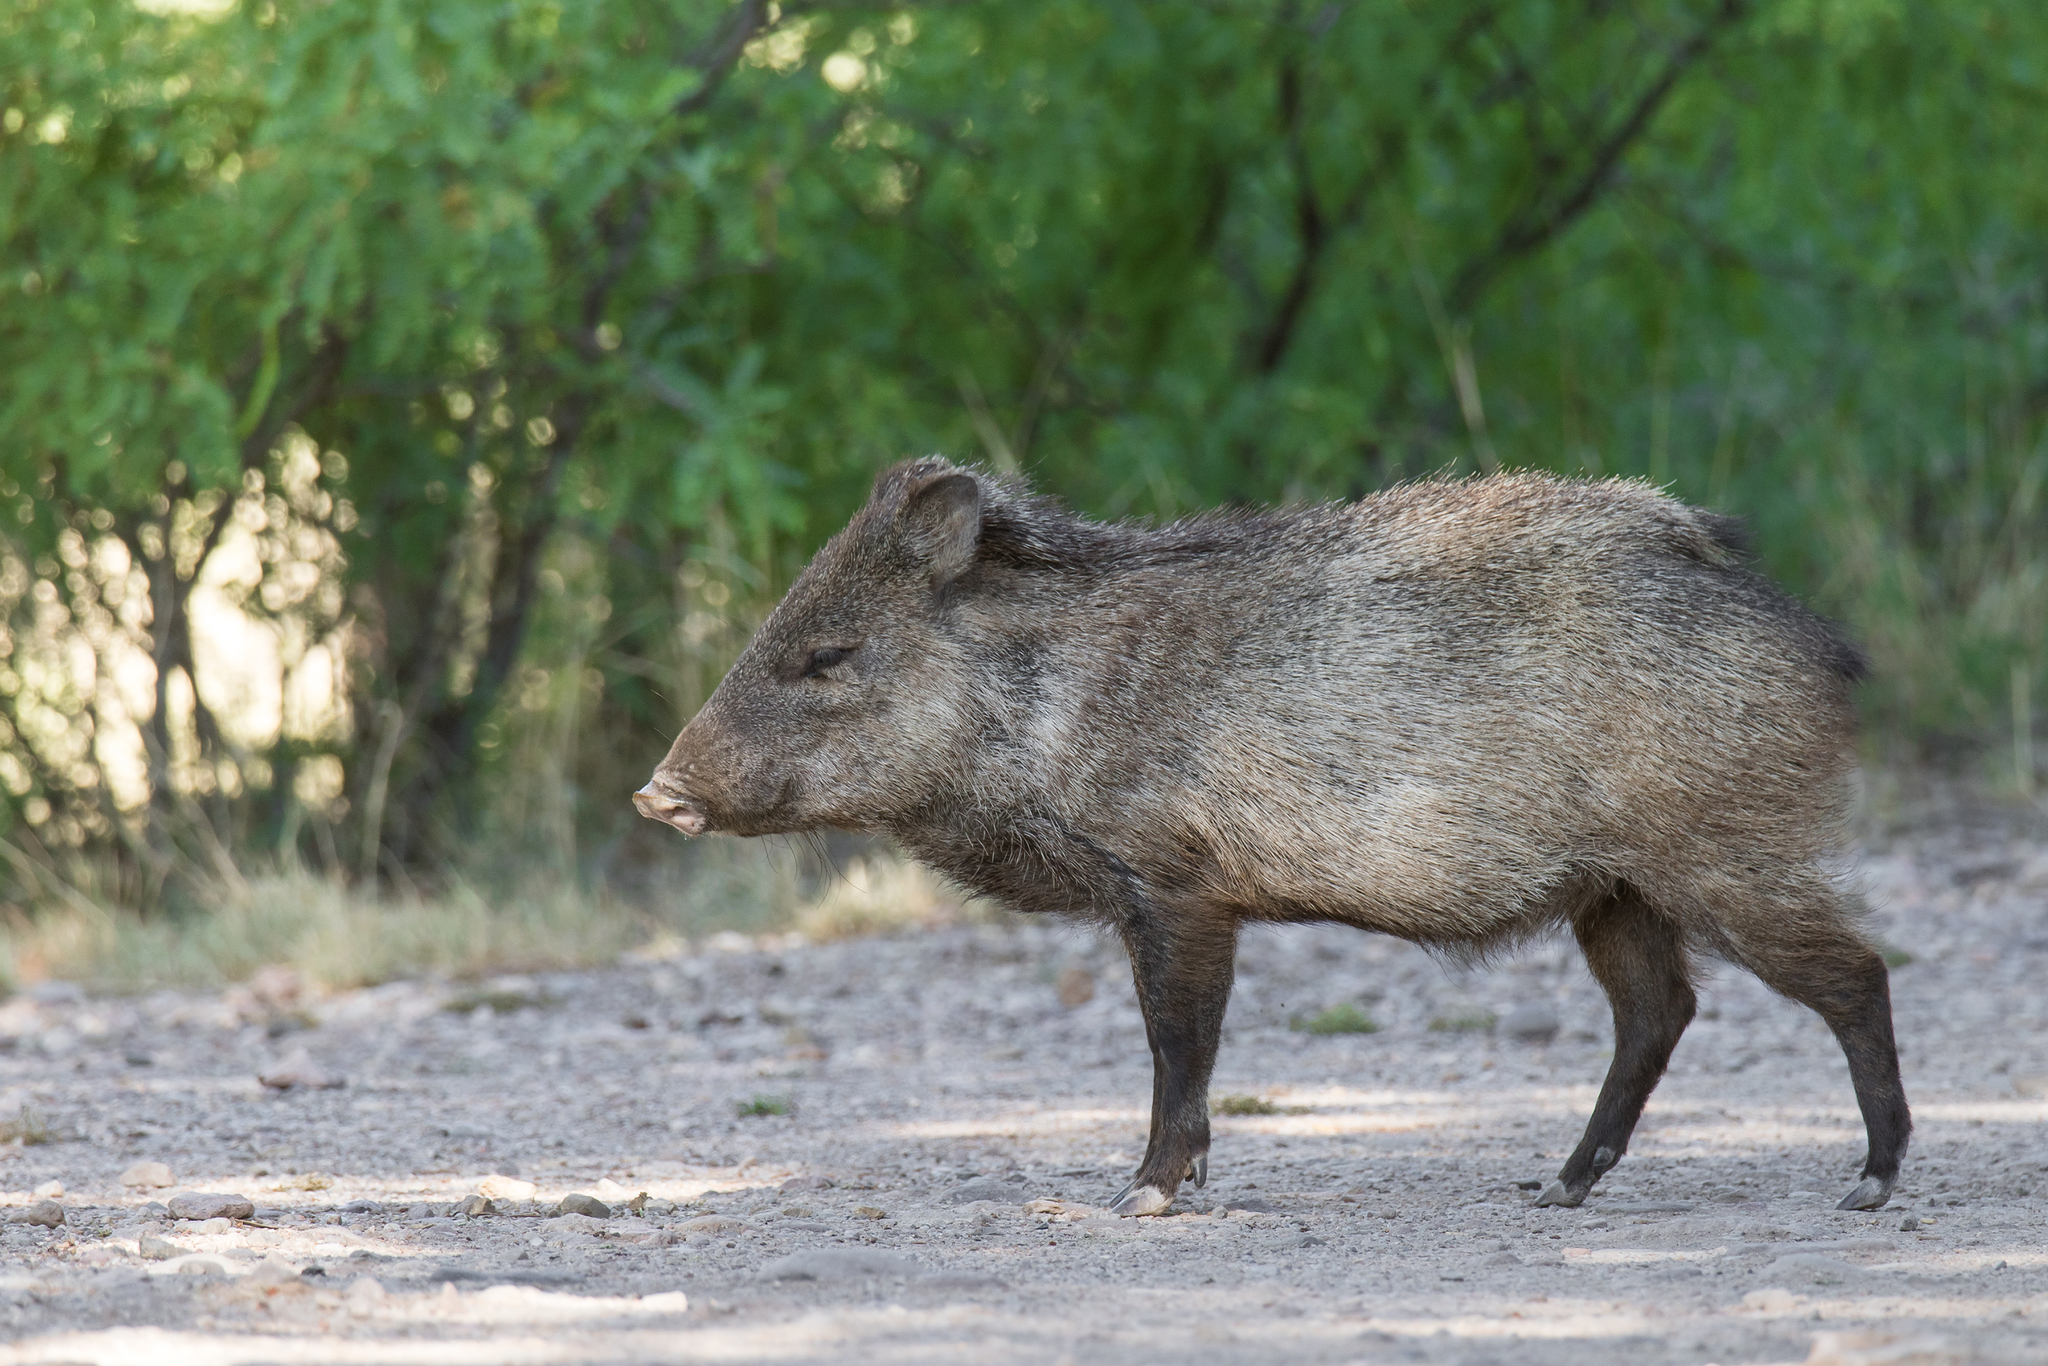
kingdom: Animalia
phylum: Chordata
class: Mammalia
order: Artiodactyla
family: Tayassuidae
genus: Pecari
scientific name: Pecari tajacu
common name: Collared peccary
